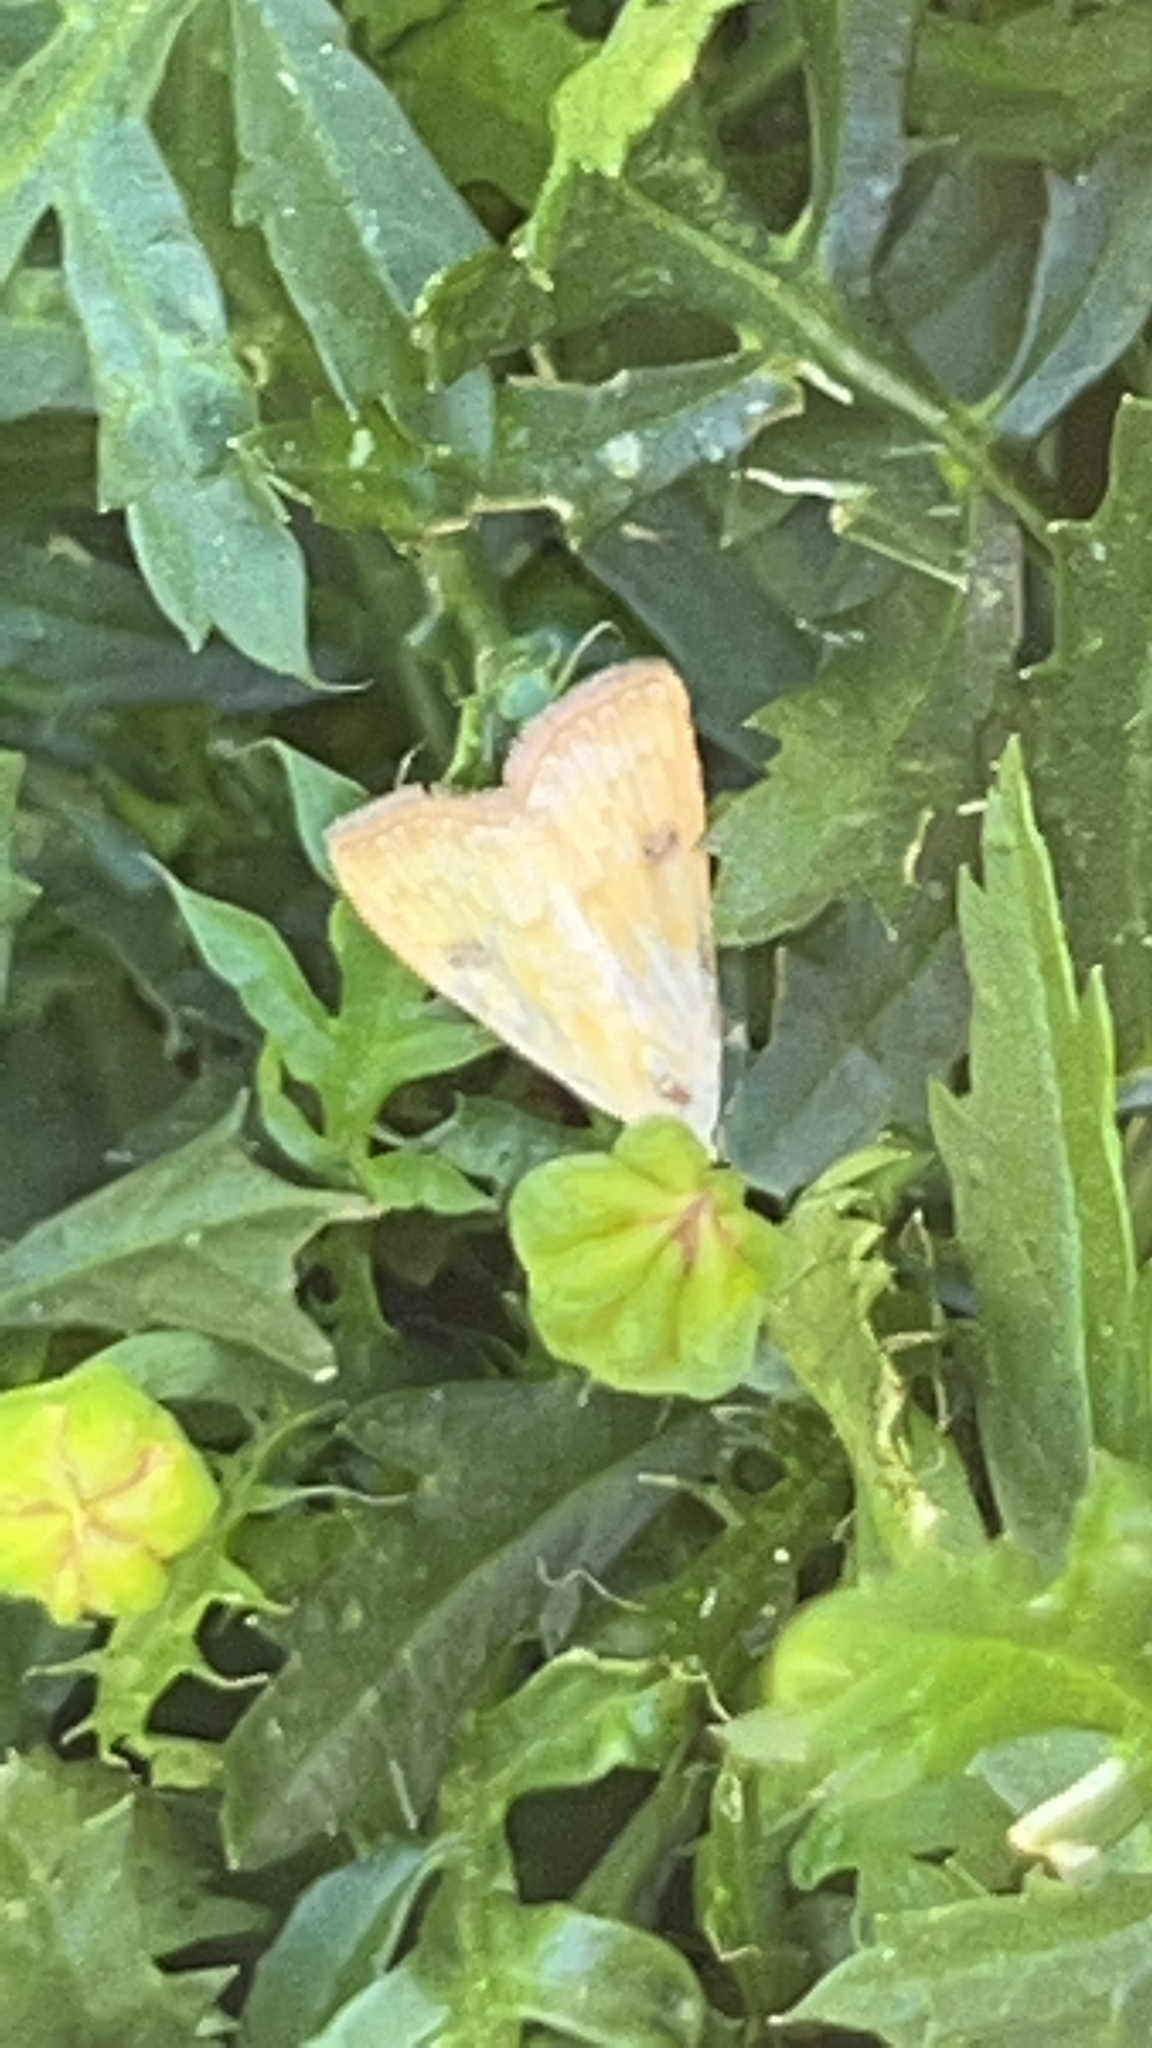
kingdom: Animalia
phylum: Arthropoda
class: Insecta
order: Lepidoptera
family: Erebidae
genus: Rivula
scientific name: Rivula sericealis
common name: Straw dot
